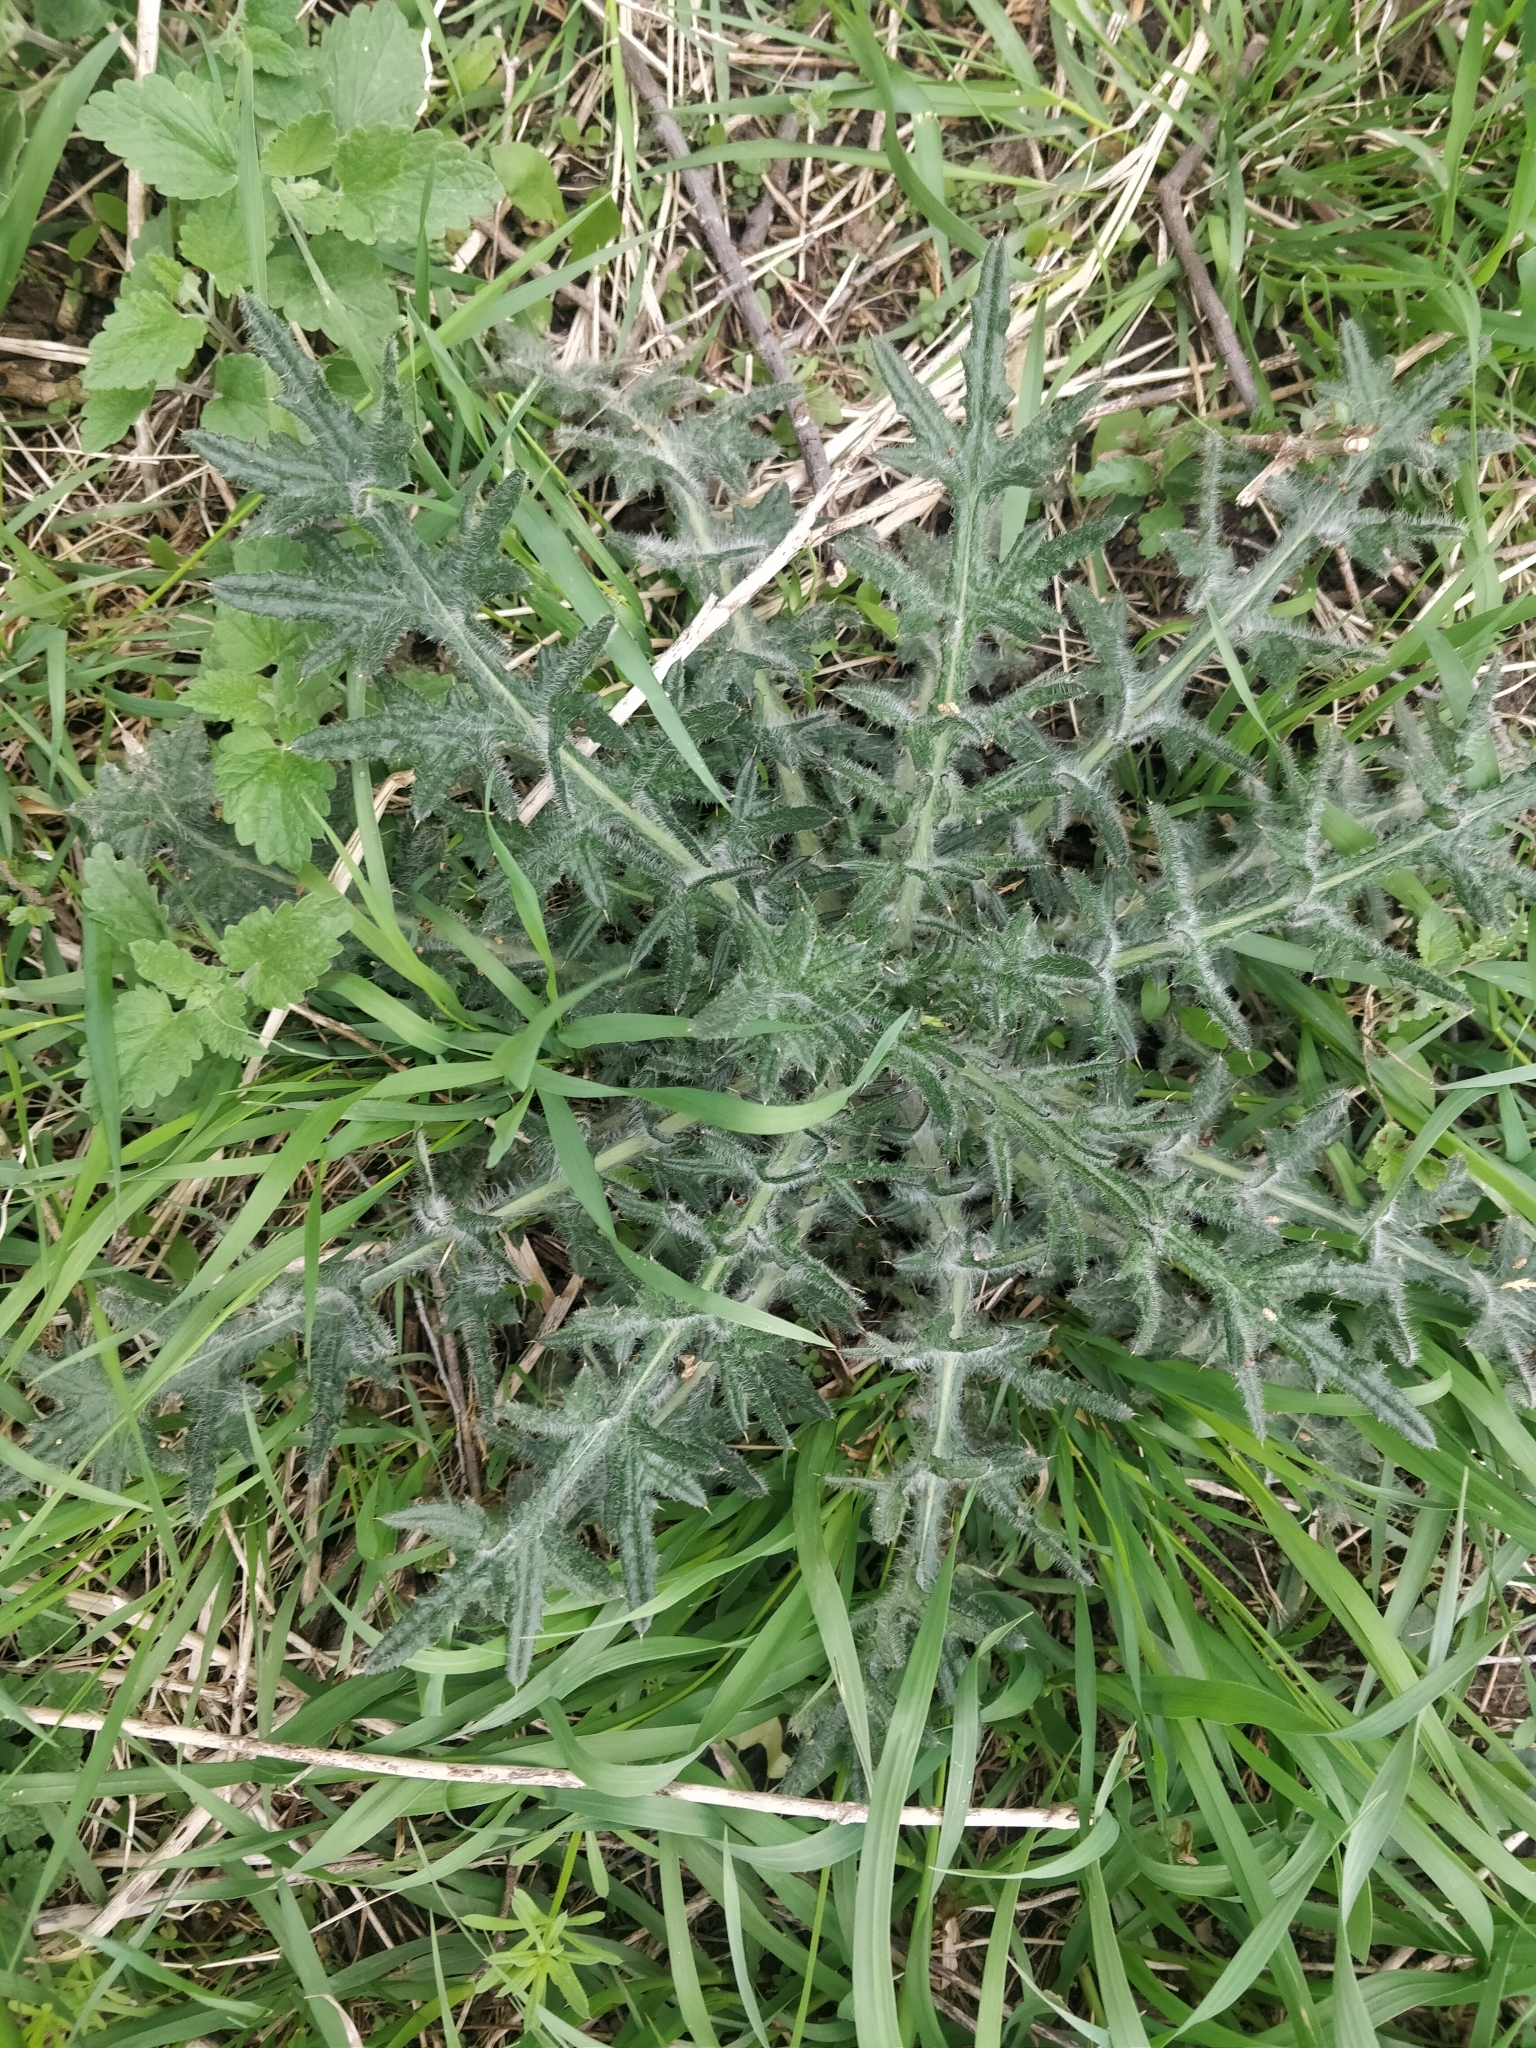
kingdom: Plantae
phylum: Tracheophyta
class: Magnoliopsida
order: Asterales
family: Asteraceae
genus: Cirsium
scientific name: Cirsium vulgare
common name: Bull thistle
